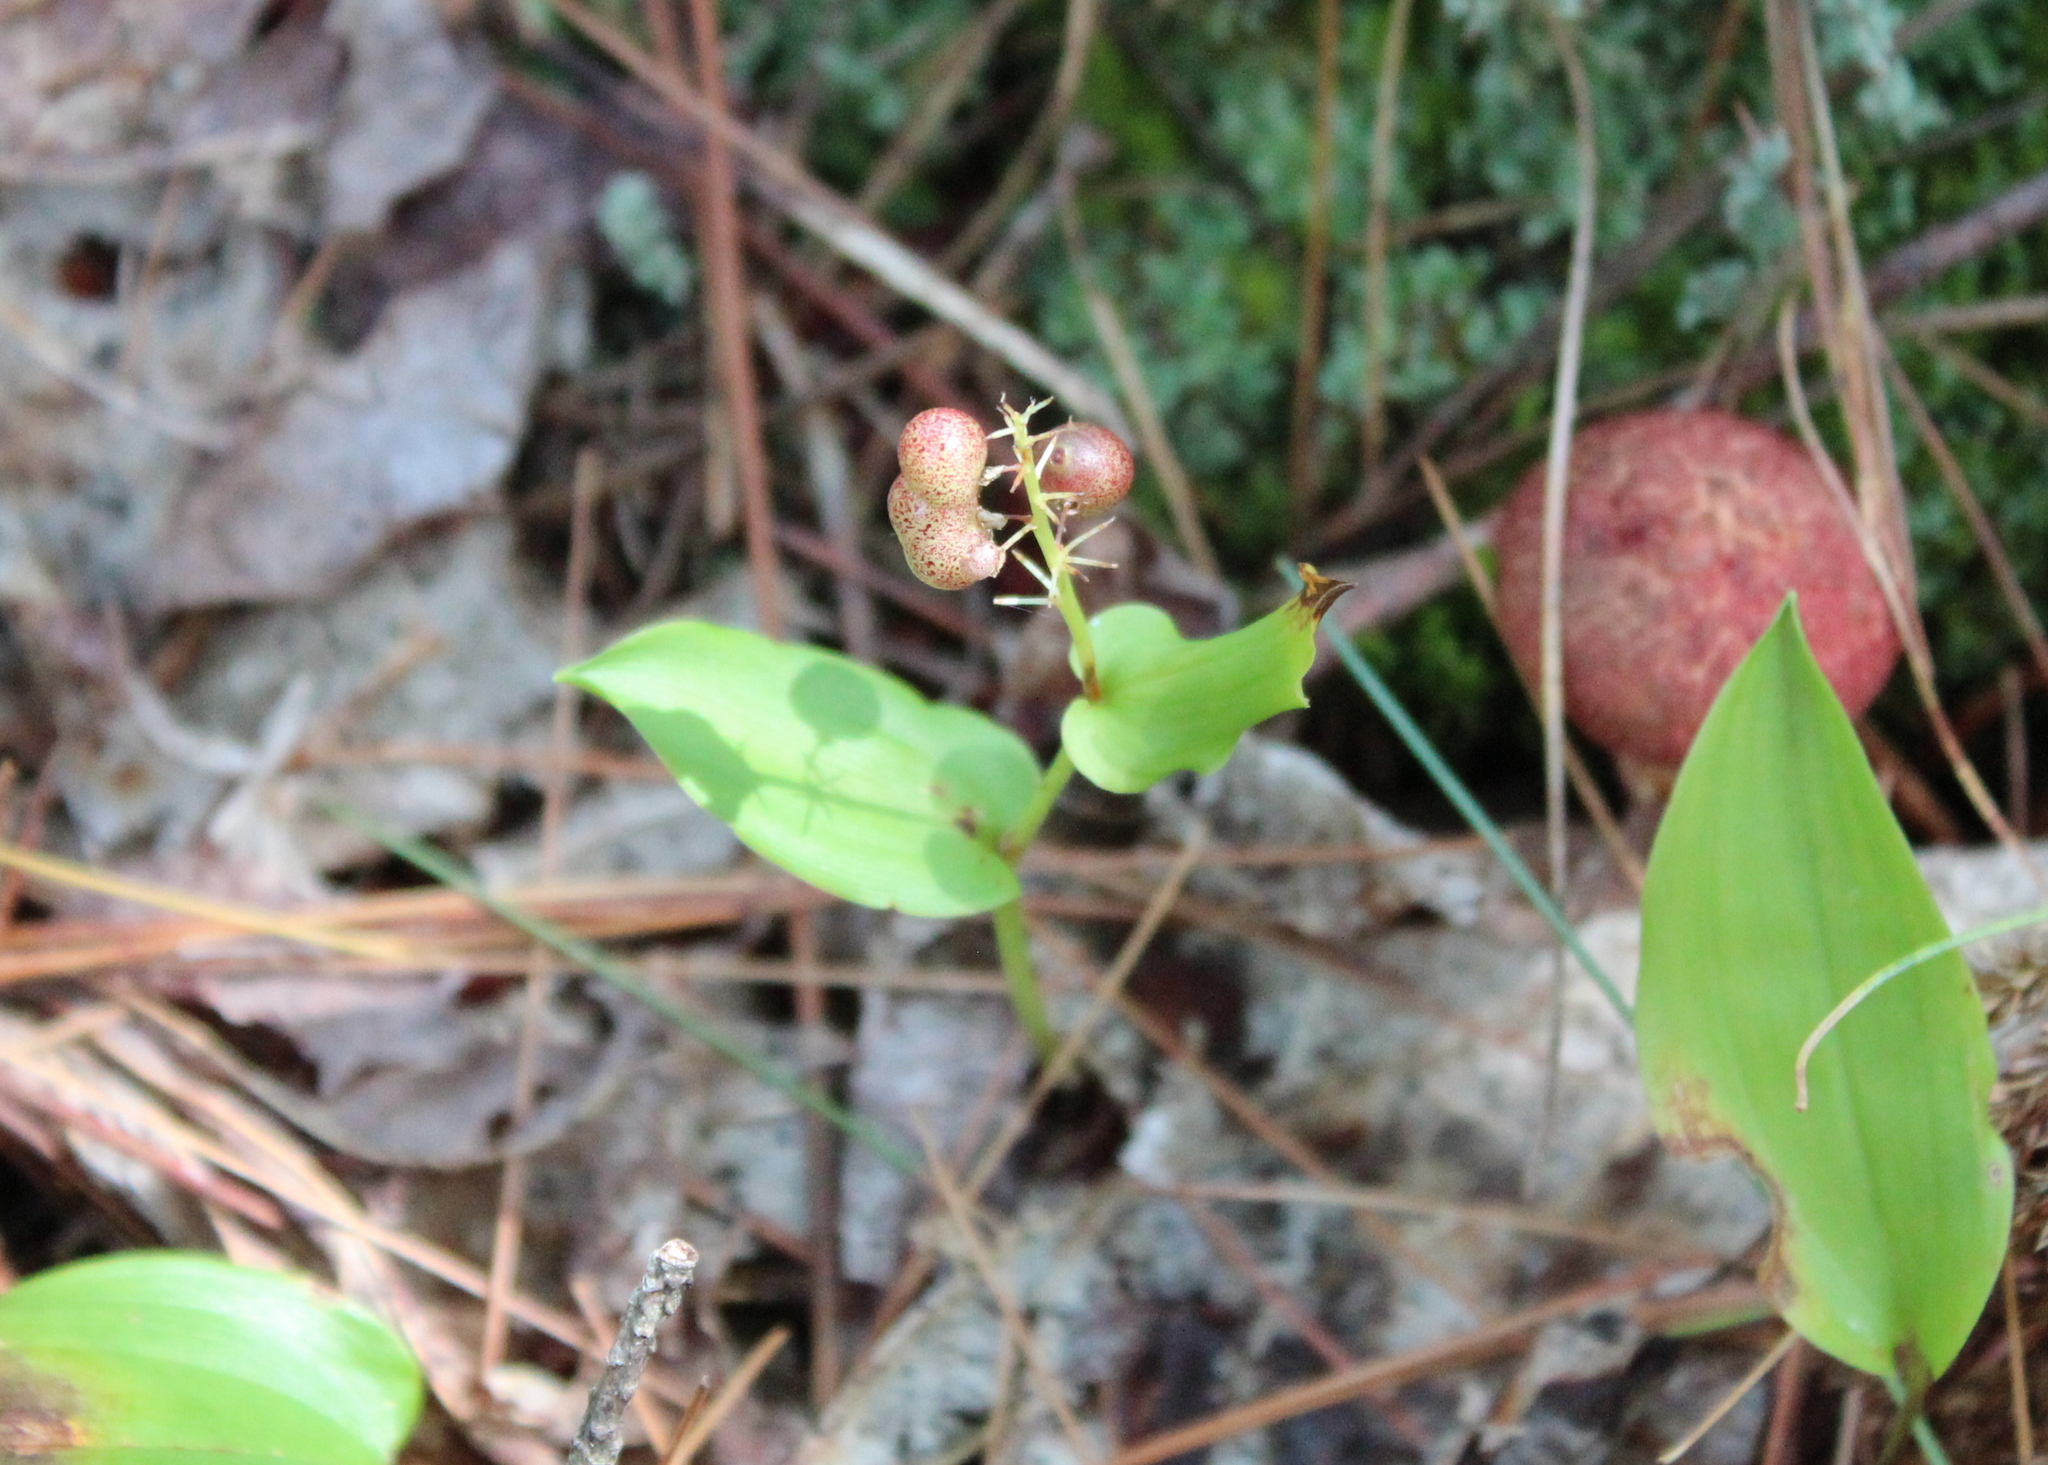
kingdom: Plantae
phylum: Tracheophyta
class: Liliopsida
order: Asparagales
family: Asparagaceae
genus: Maianthemum
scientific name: Maianthemum canadense
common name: False lily-of-the-valley
